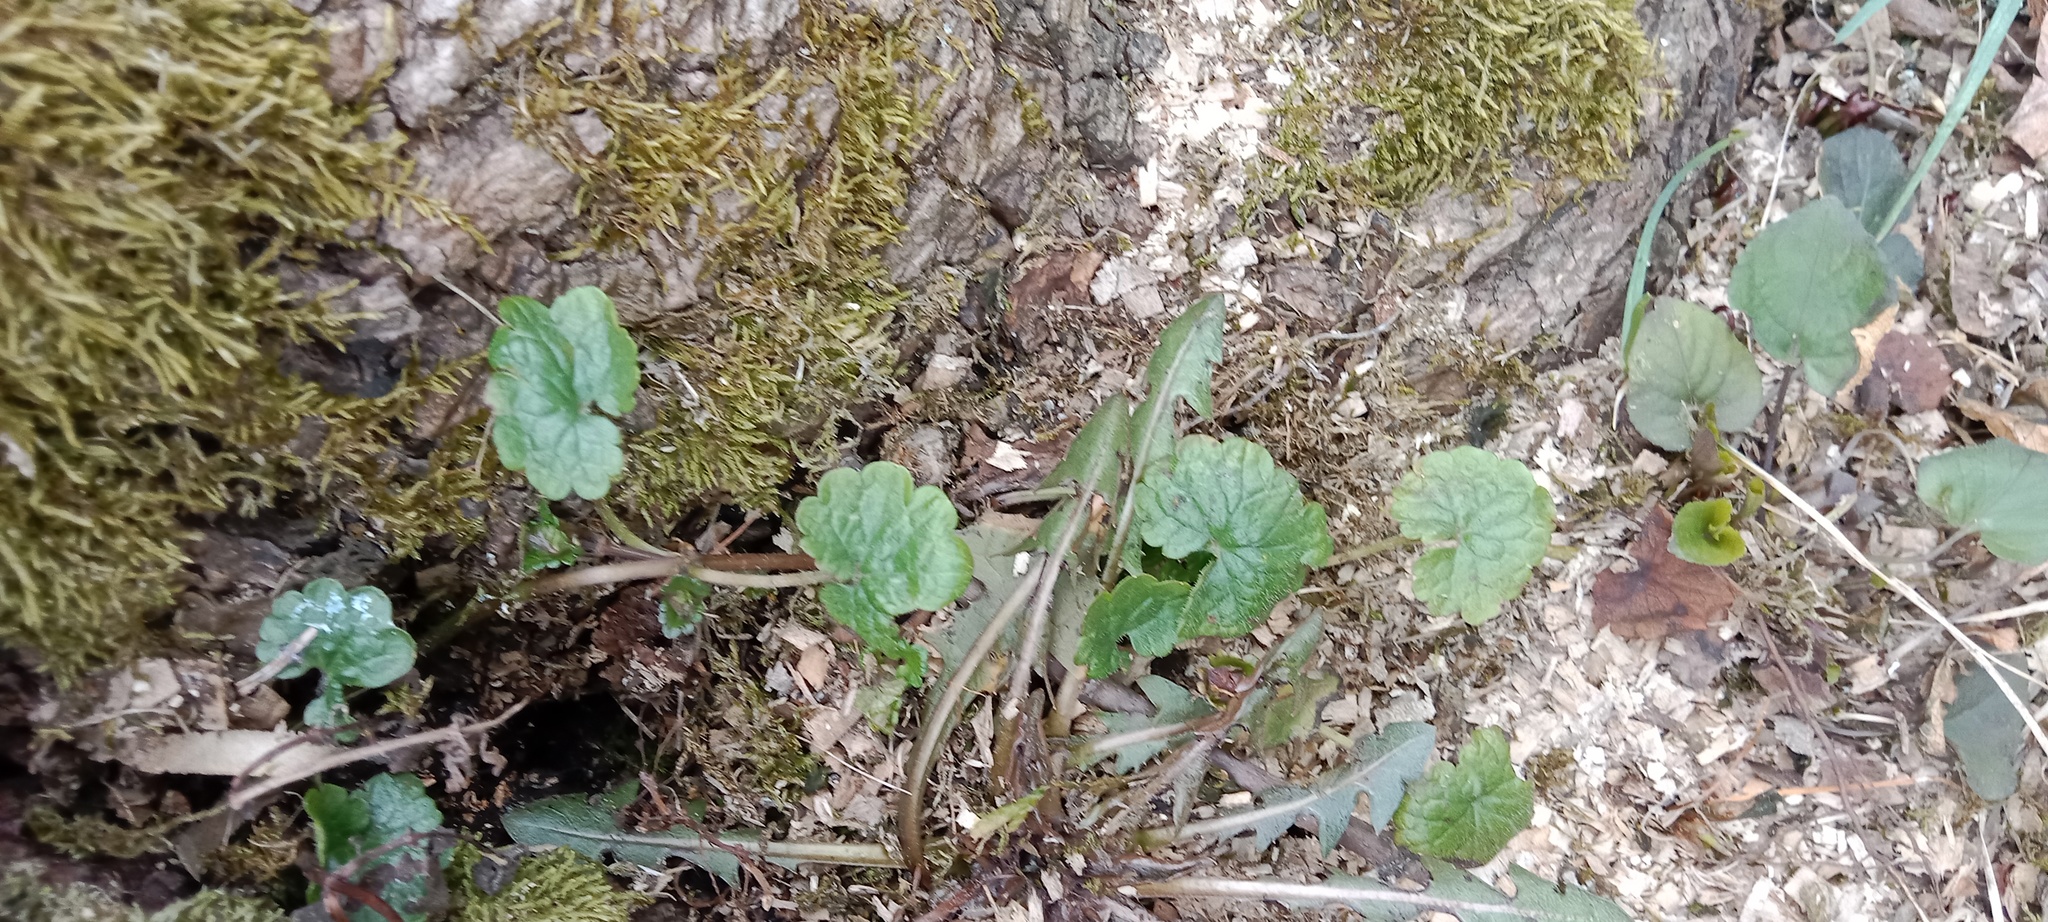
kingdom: Plantae
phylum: Tracheophyta
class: Magnoliopsida
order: Lamiales
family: Lamiaceae
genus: Glechoma
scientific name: Glechoma hederacea
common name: Ground ivy
